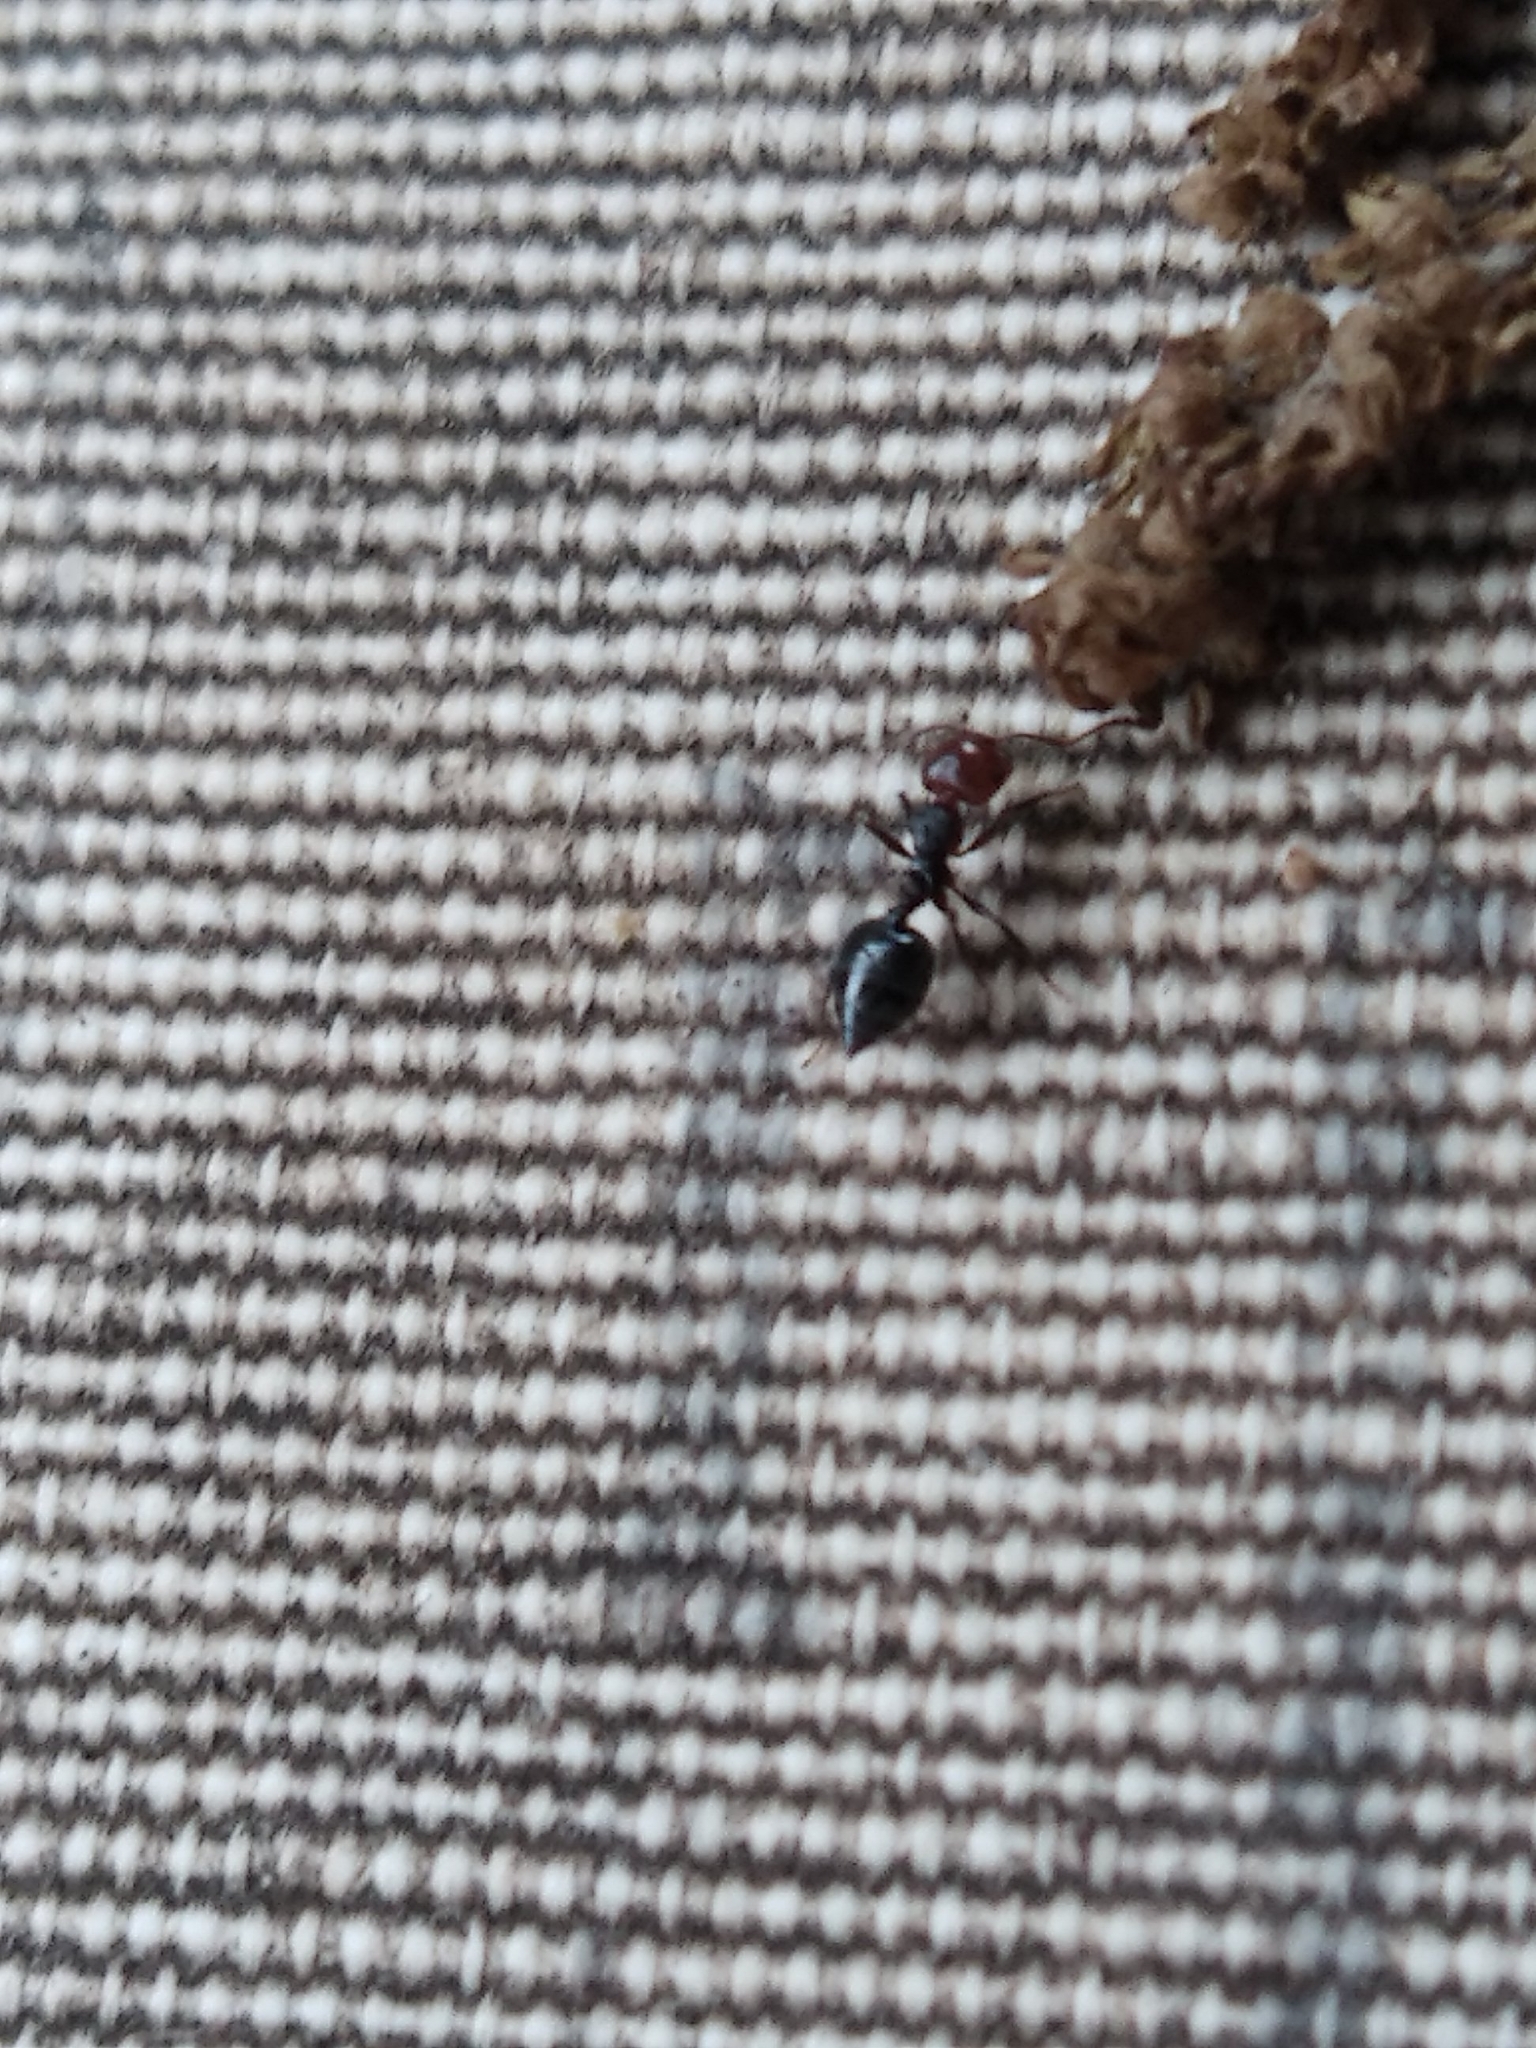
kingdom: Animalia
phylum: Arthropoda
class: Insecta
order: Hymenoptera
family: Formicidae
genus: Crematogaster
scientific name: Crematogaster scutellaris
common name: Fourmi du liège
